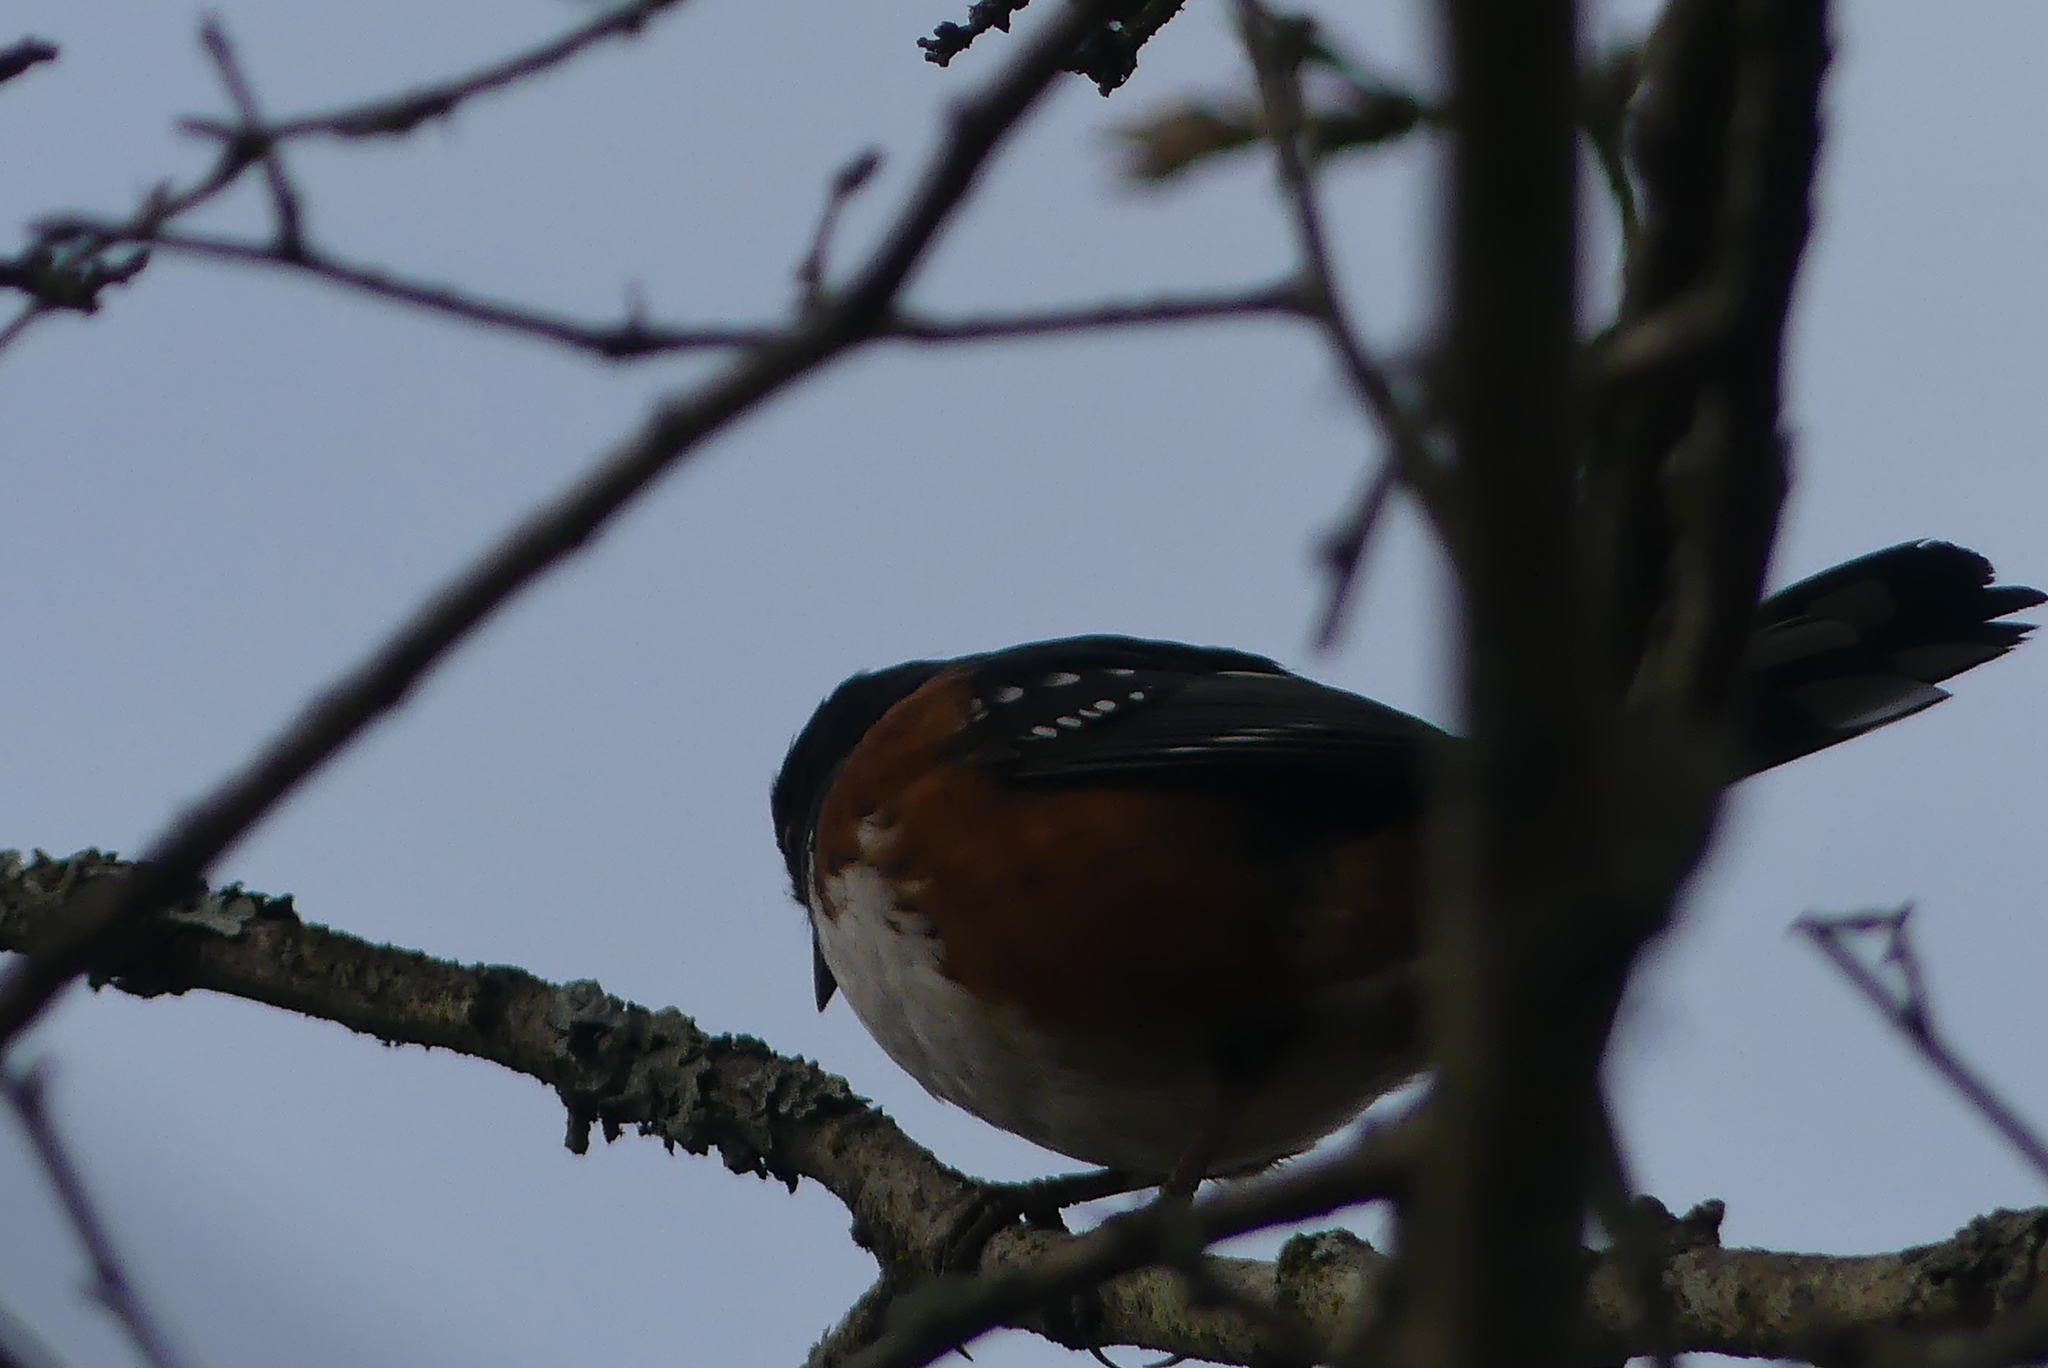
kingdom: Animalia
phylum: Chordata
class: Aves
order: Passeriformes
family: Passerellidae
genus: Pipilo
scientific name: Pipilo maculatus
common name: Spotted towhee
